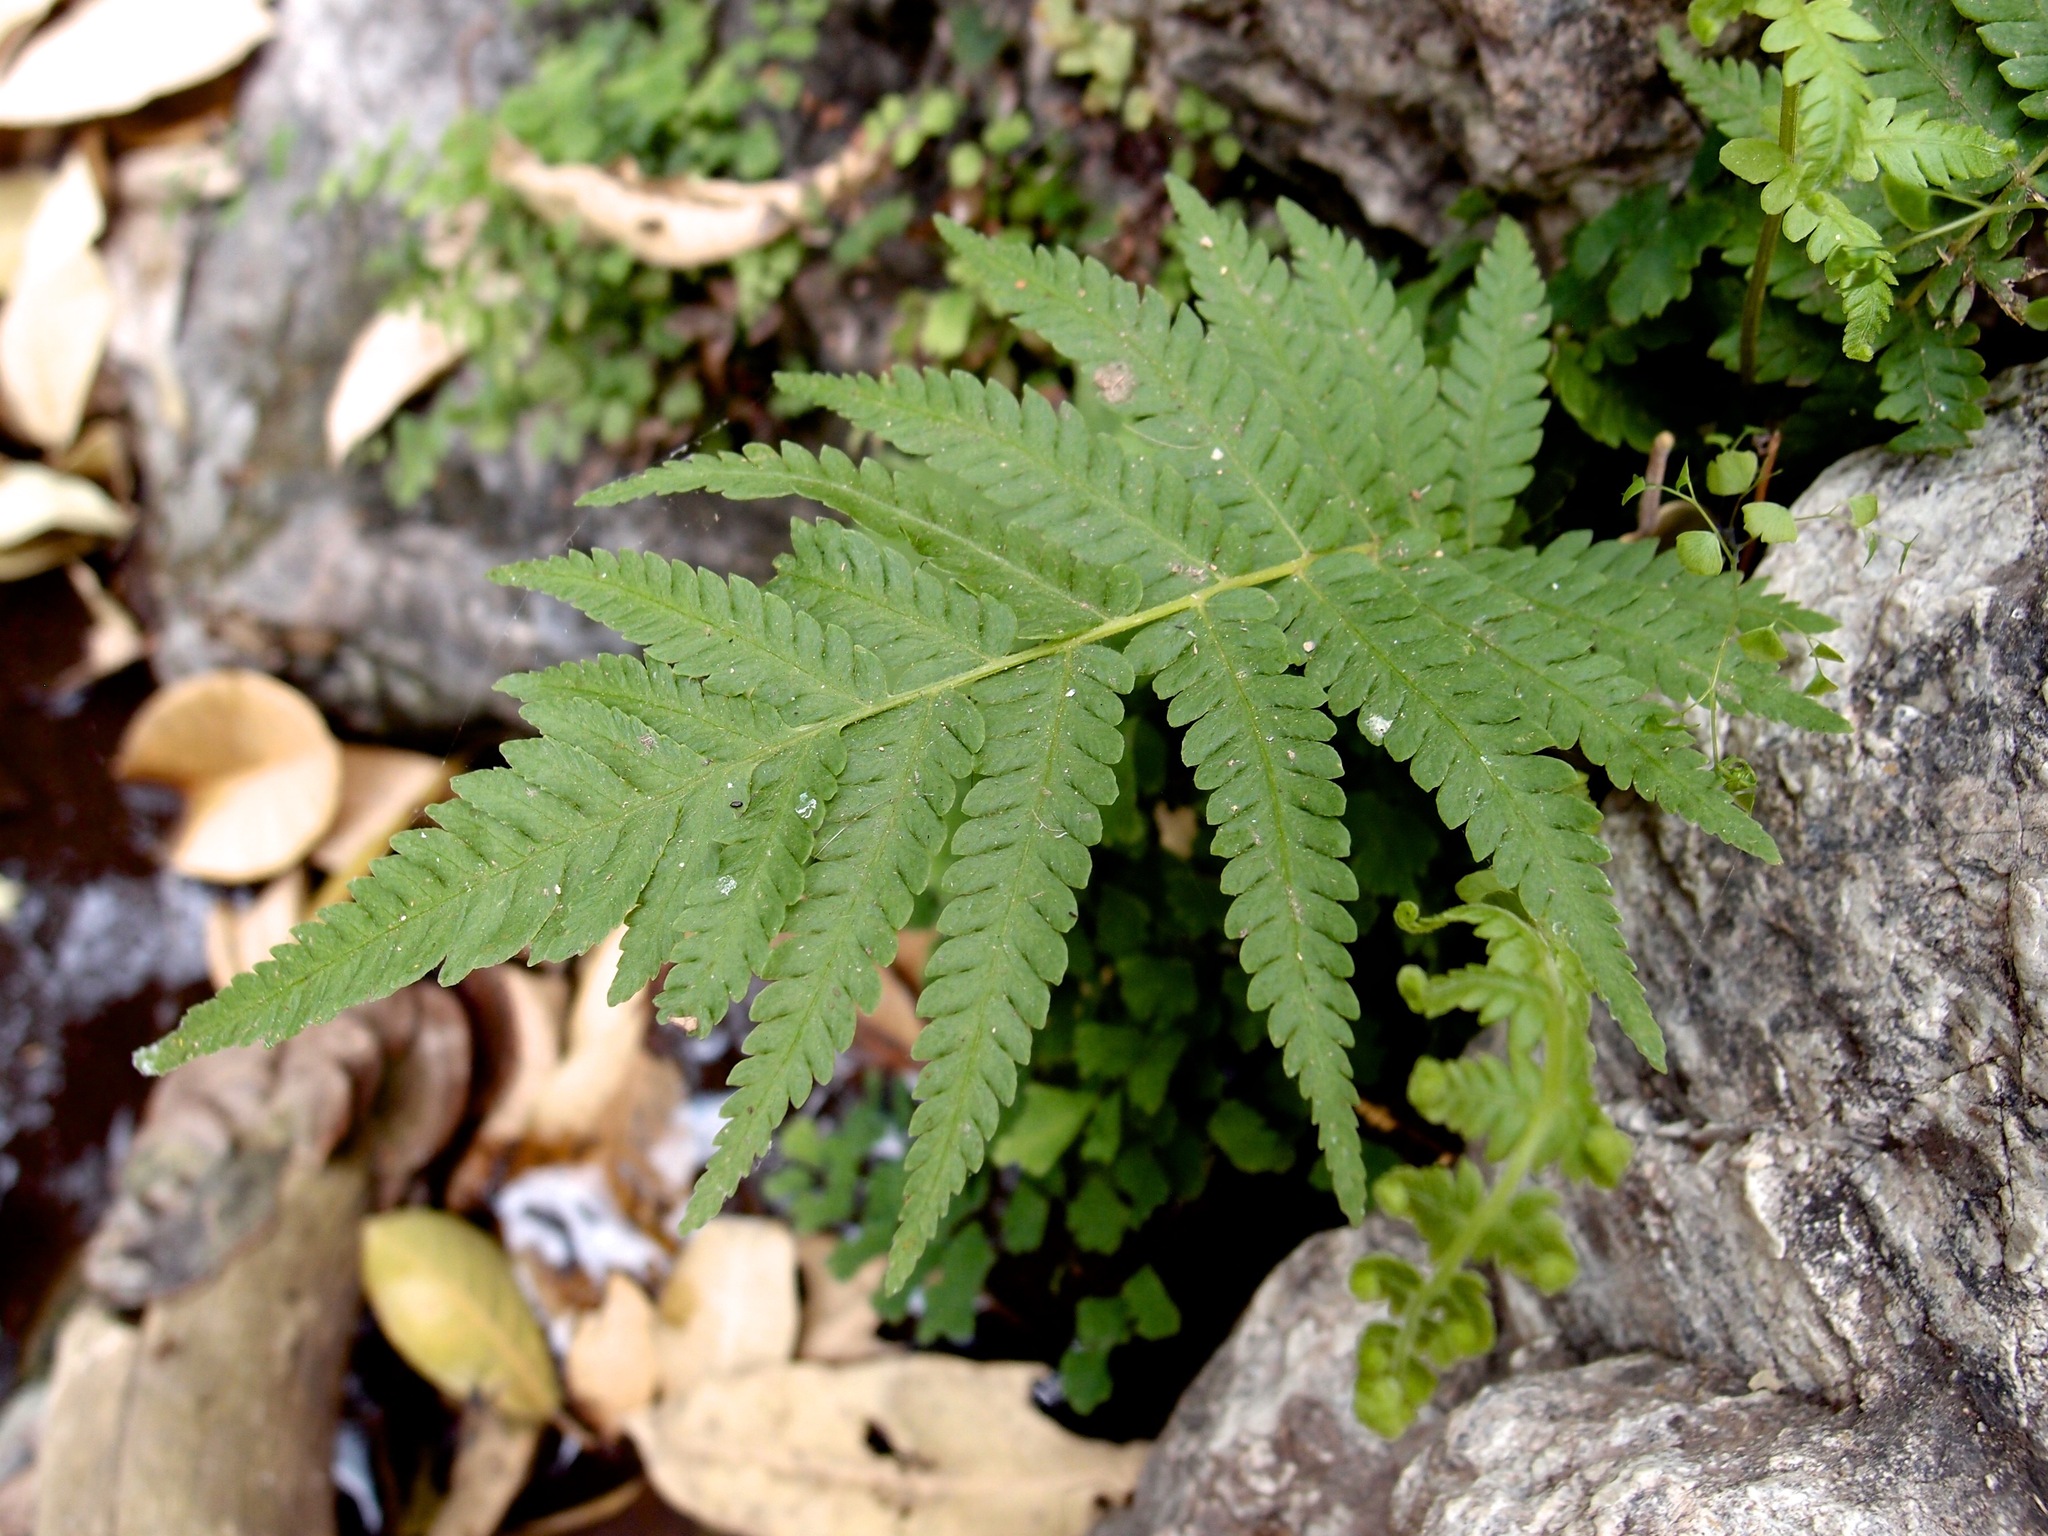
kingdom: Plantae
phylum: Tracheophyta
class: Polypodiopsida
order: Polypodiales
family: Thelypteridaceae
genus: Pelazoneuron
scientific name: Pelazoneuron puberulum
